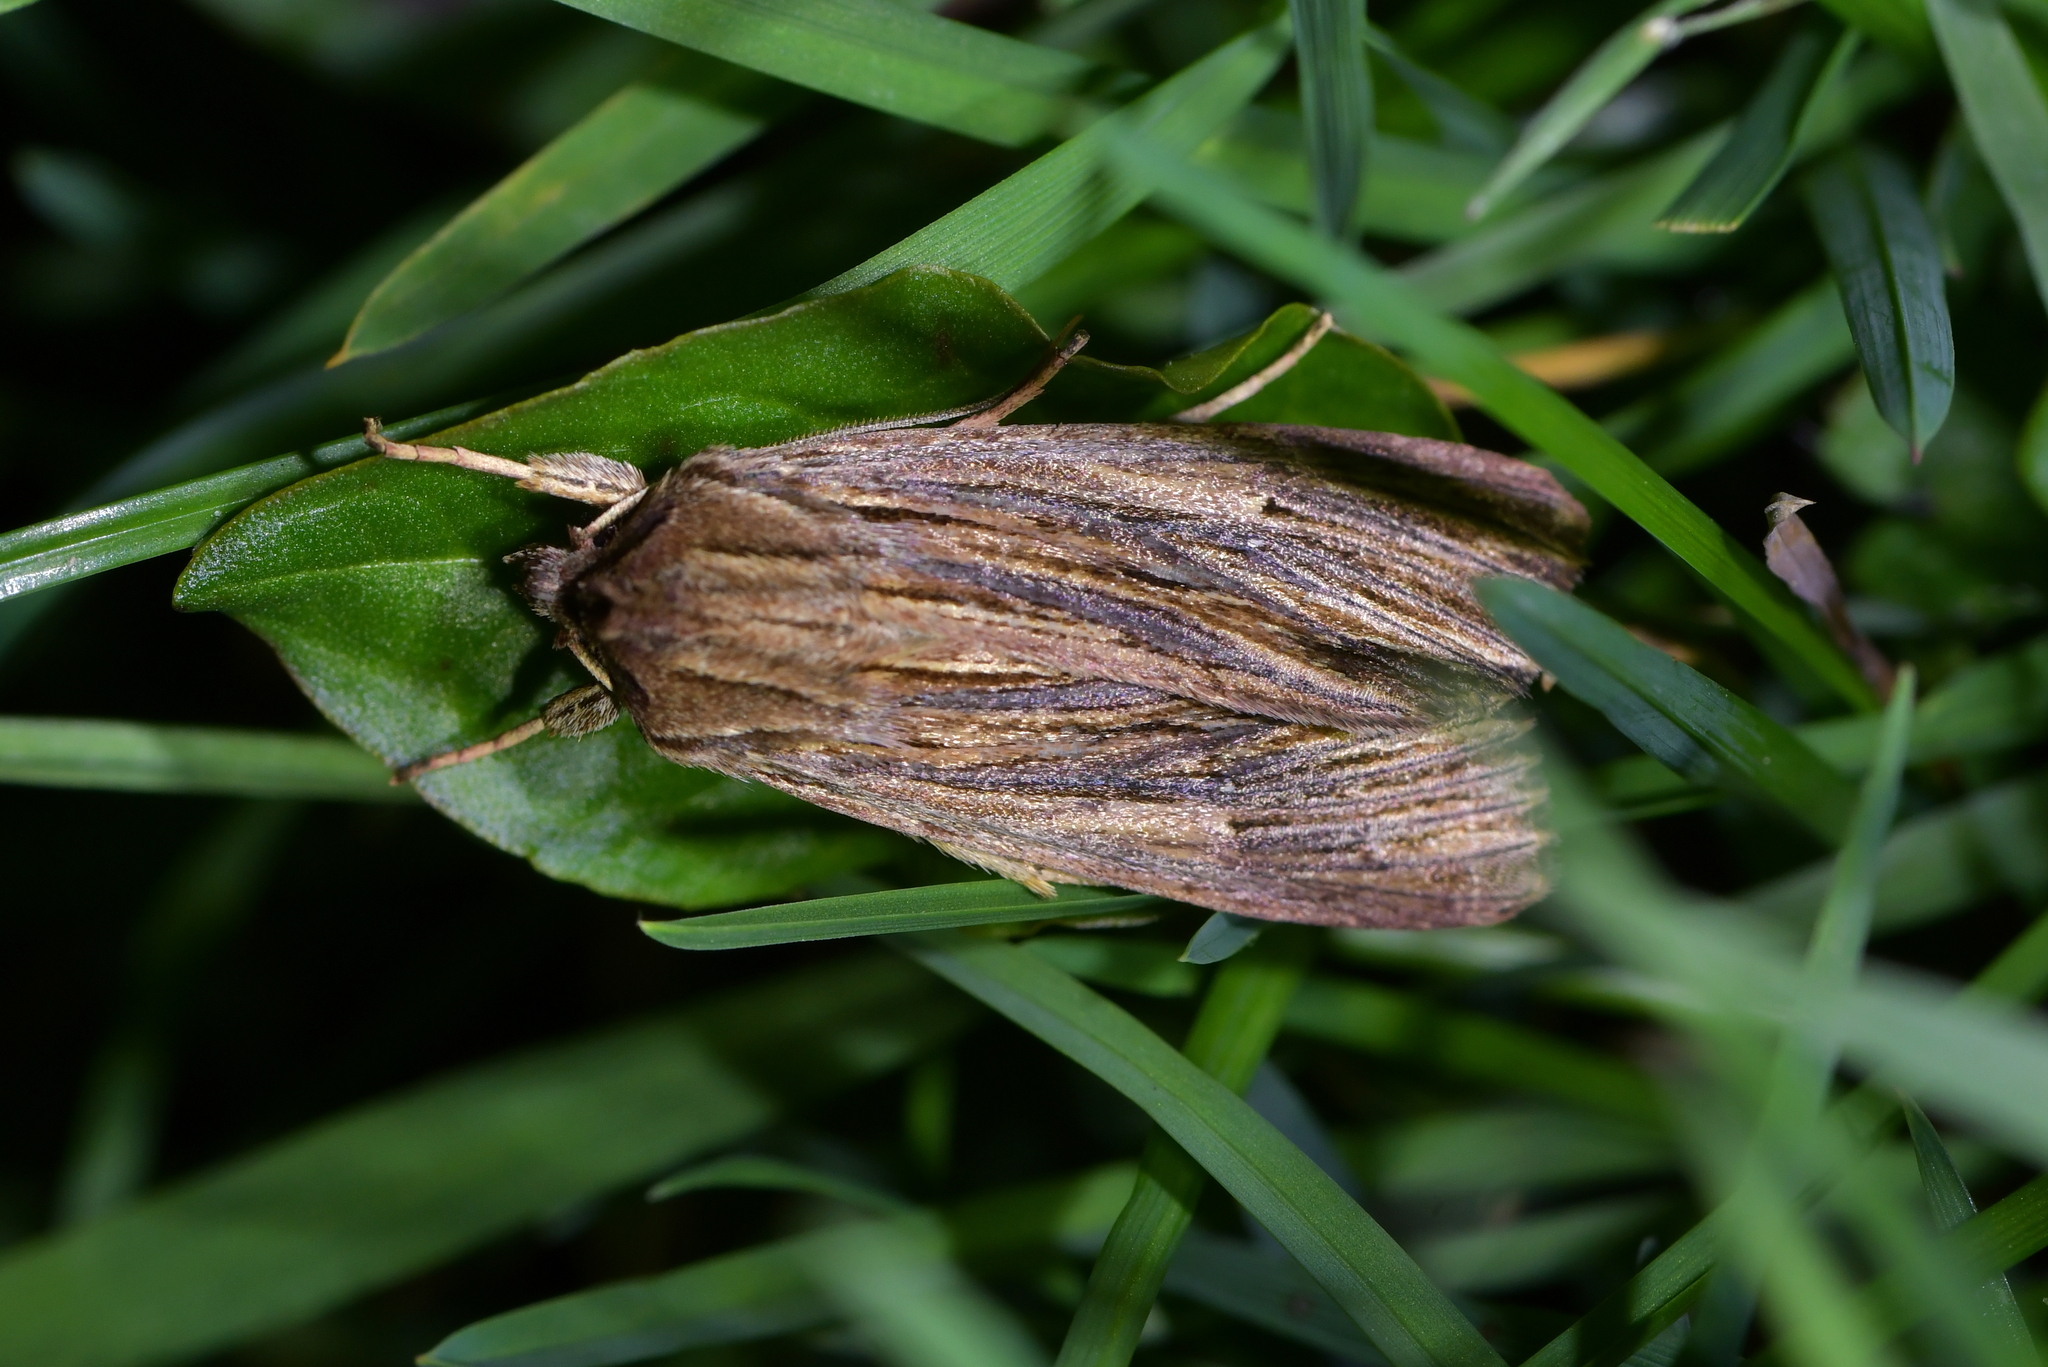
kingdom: Animalia
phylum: Arthropoda
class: Insecta
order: Lepidoptera
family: Noctuidae
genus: Ichneutica
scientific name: Ichneutica
